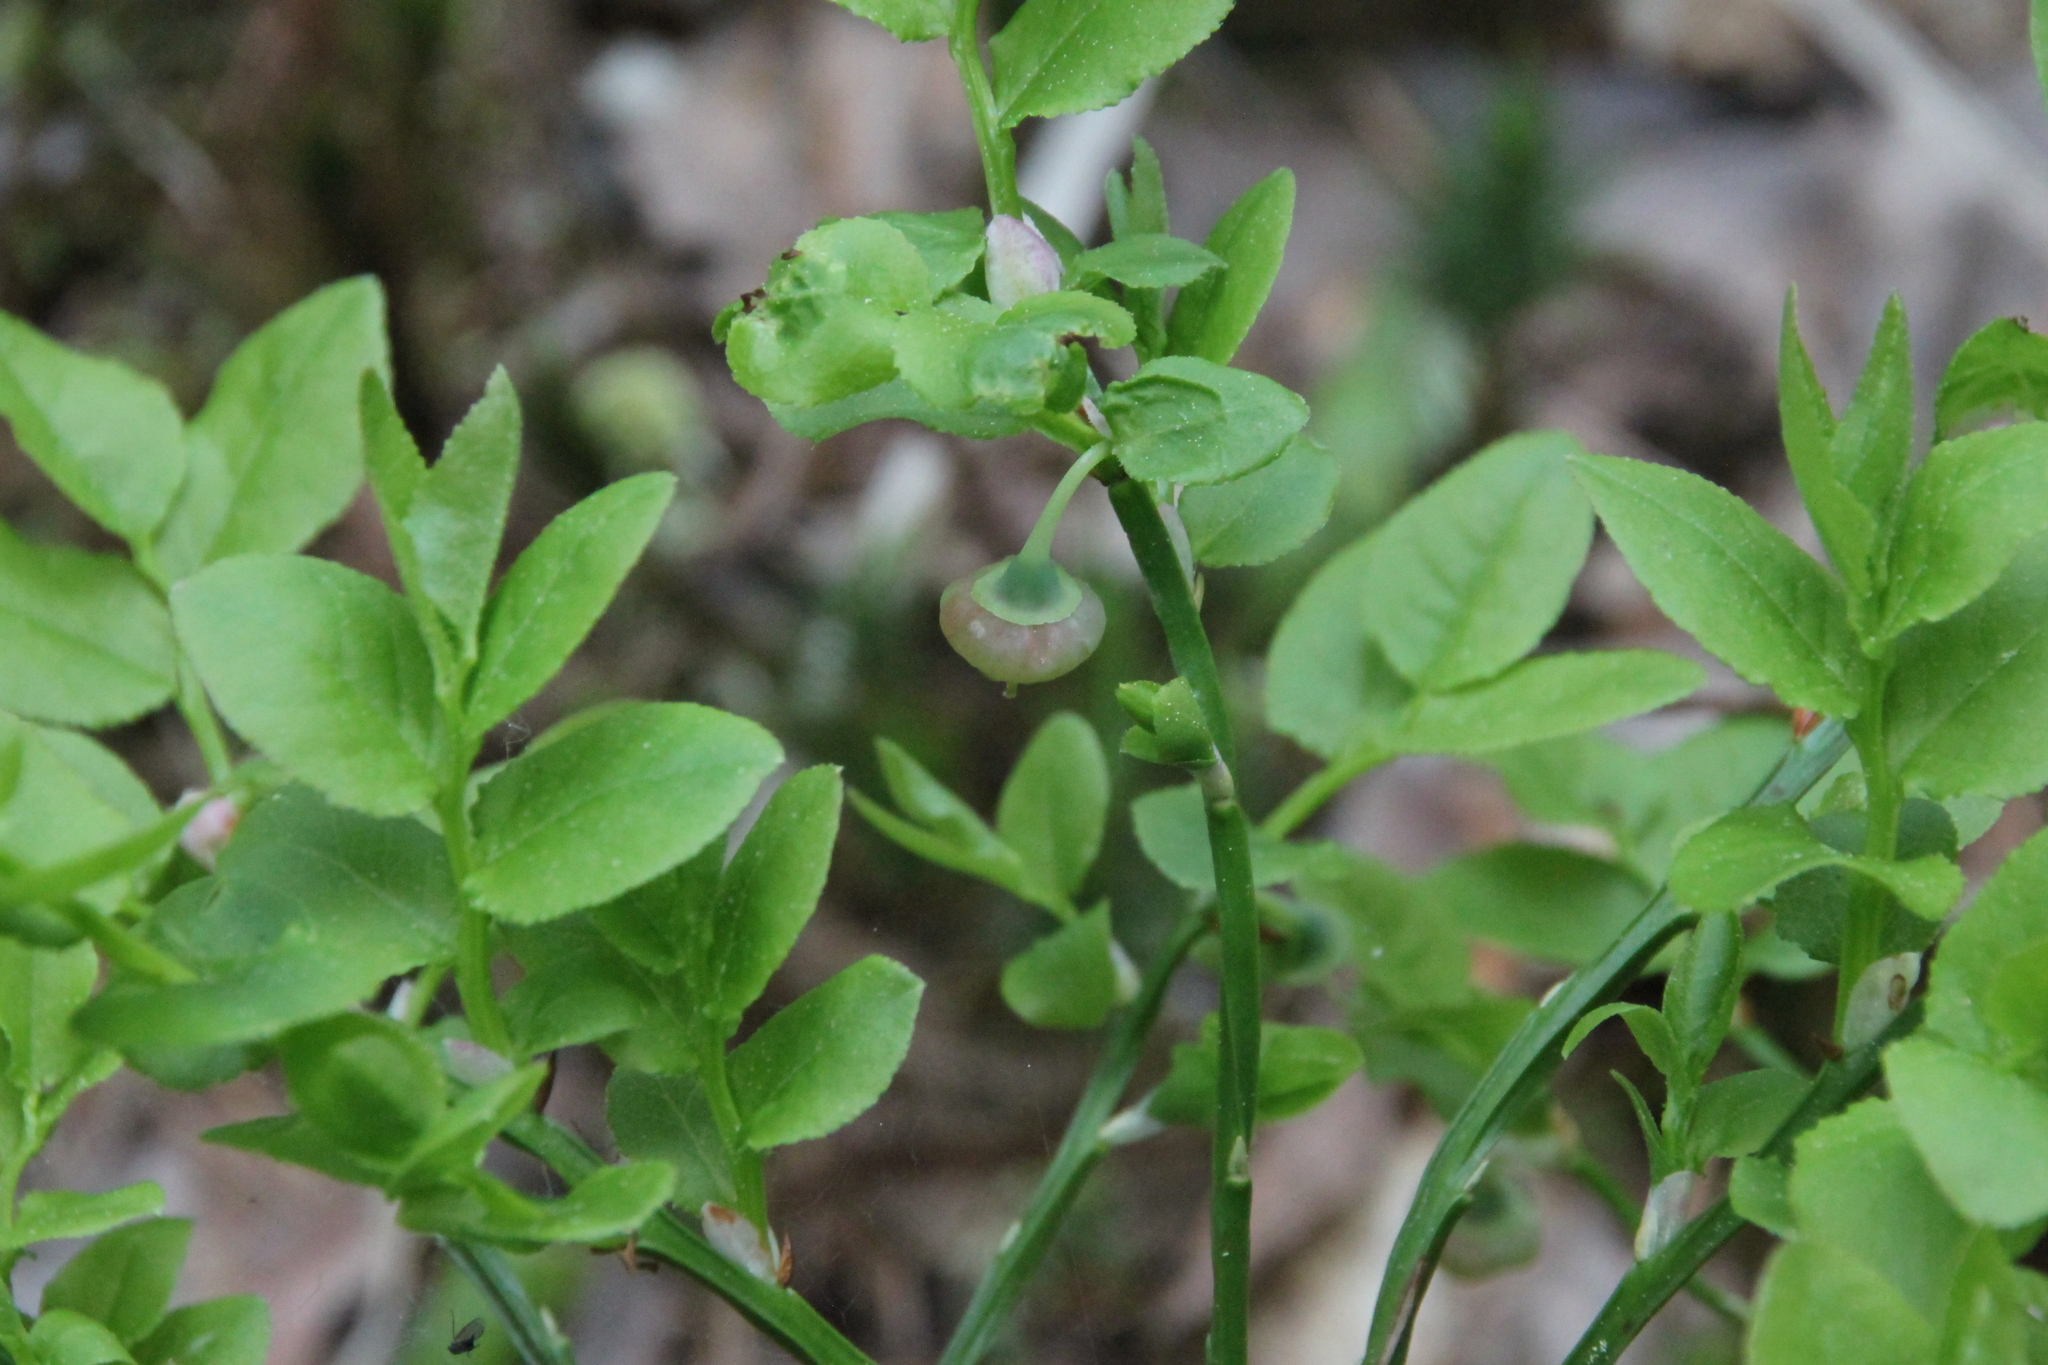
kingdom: Plantae
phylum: Tracheophyta
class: Magnoliopsida
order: Ericales
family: Ericaceae
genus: Vaccinium
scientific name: Vaccinium myrtillus
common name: Bilberry
